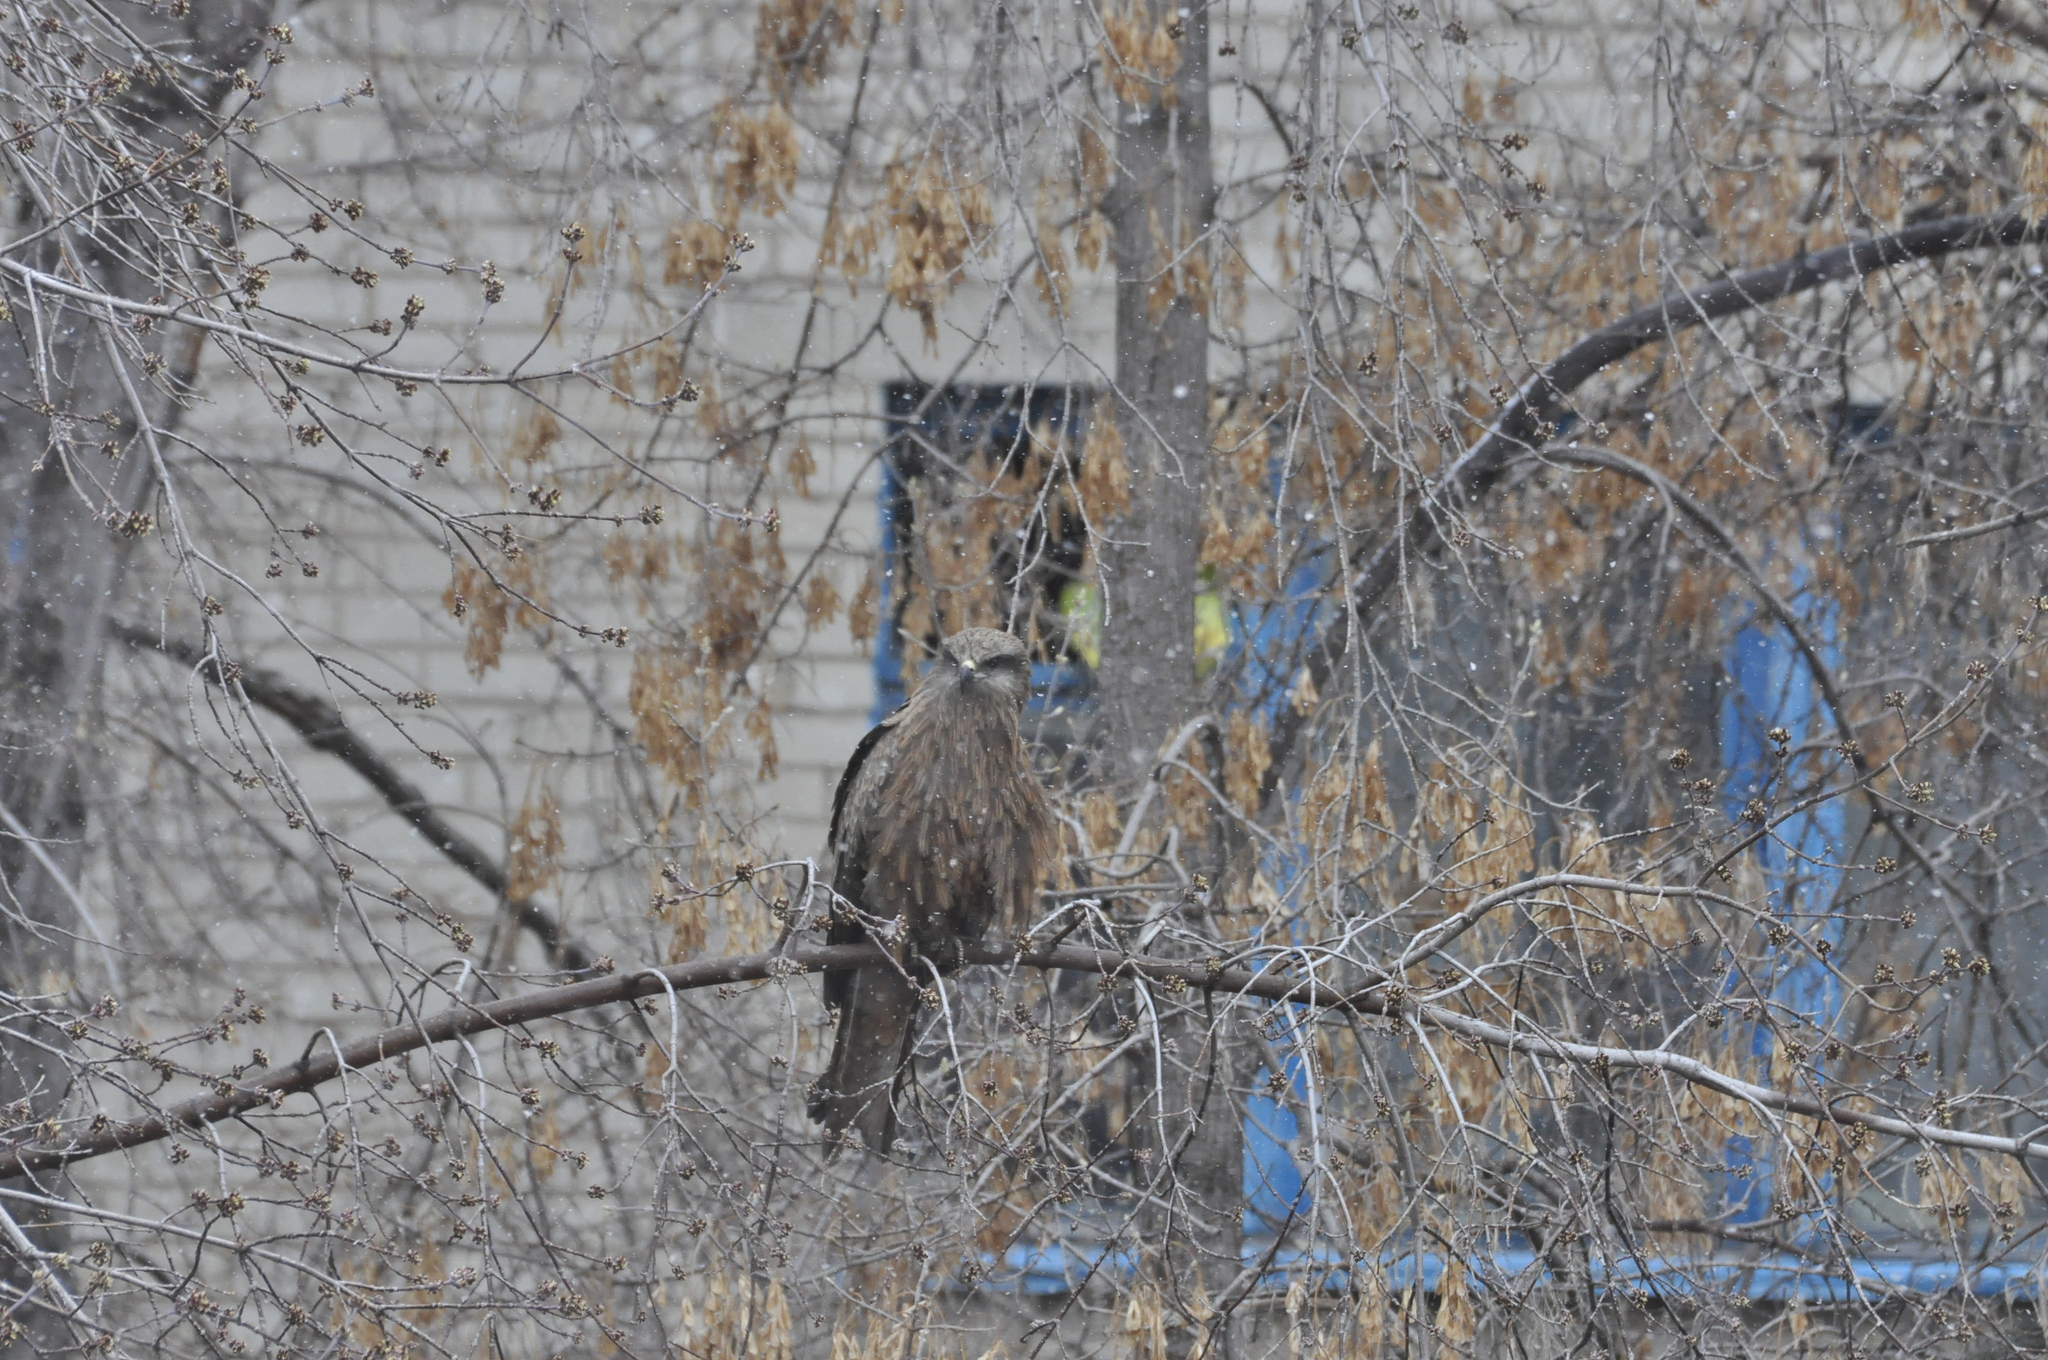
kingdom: Animalia
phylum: Chordata
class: Aves
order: Accipitriformes
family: Accipitridae
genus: Milvus
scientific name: Milvus migrans
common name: Black kite
